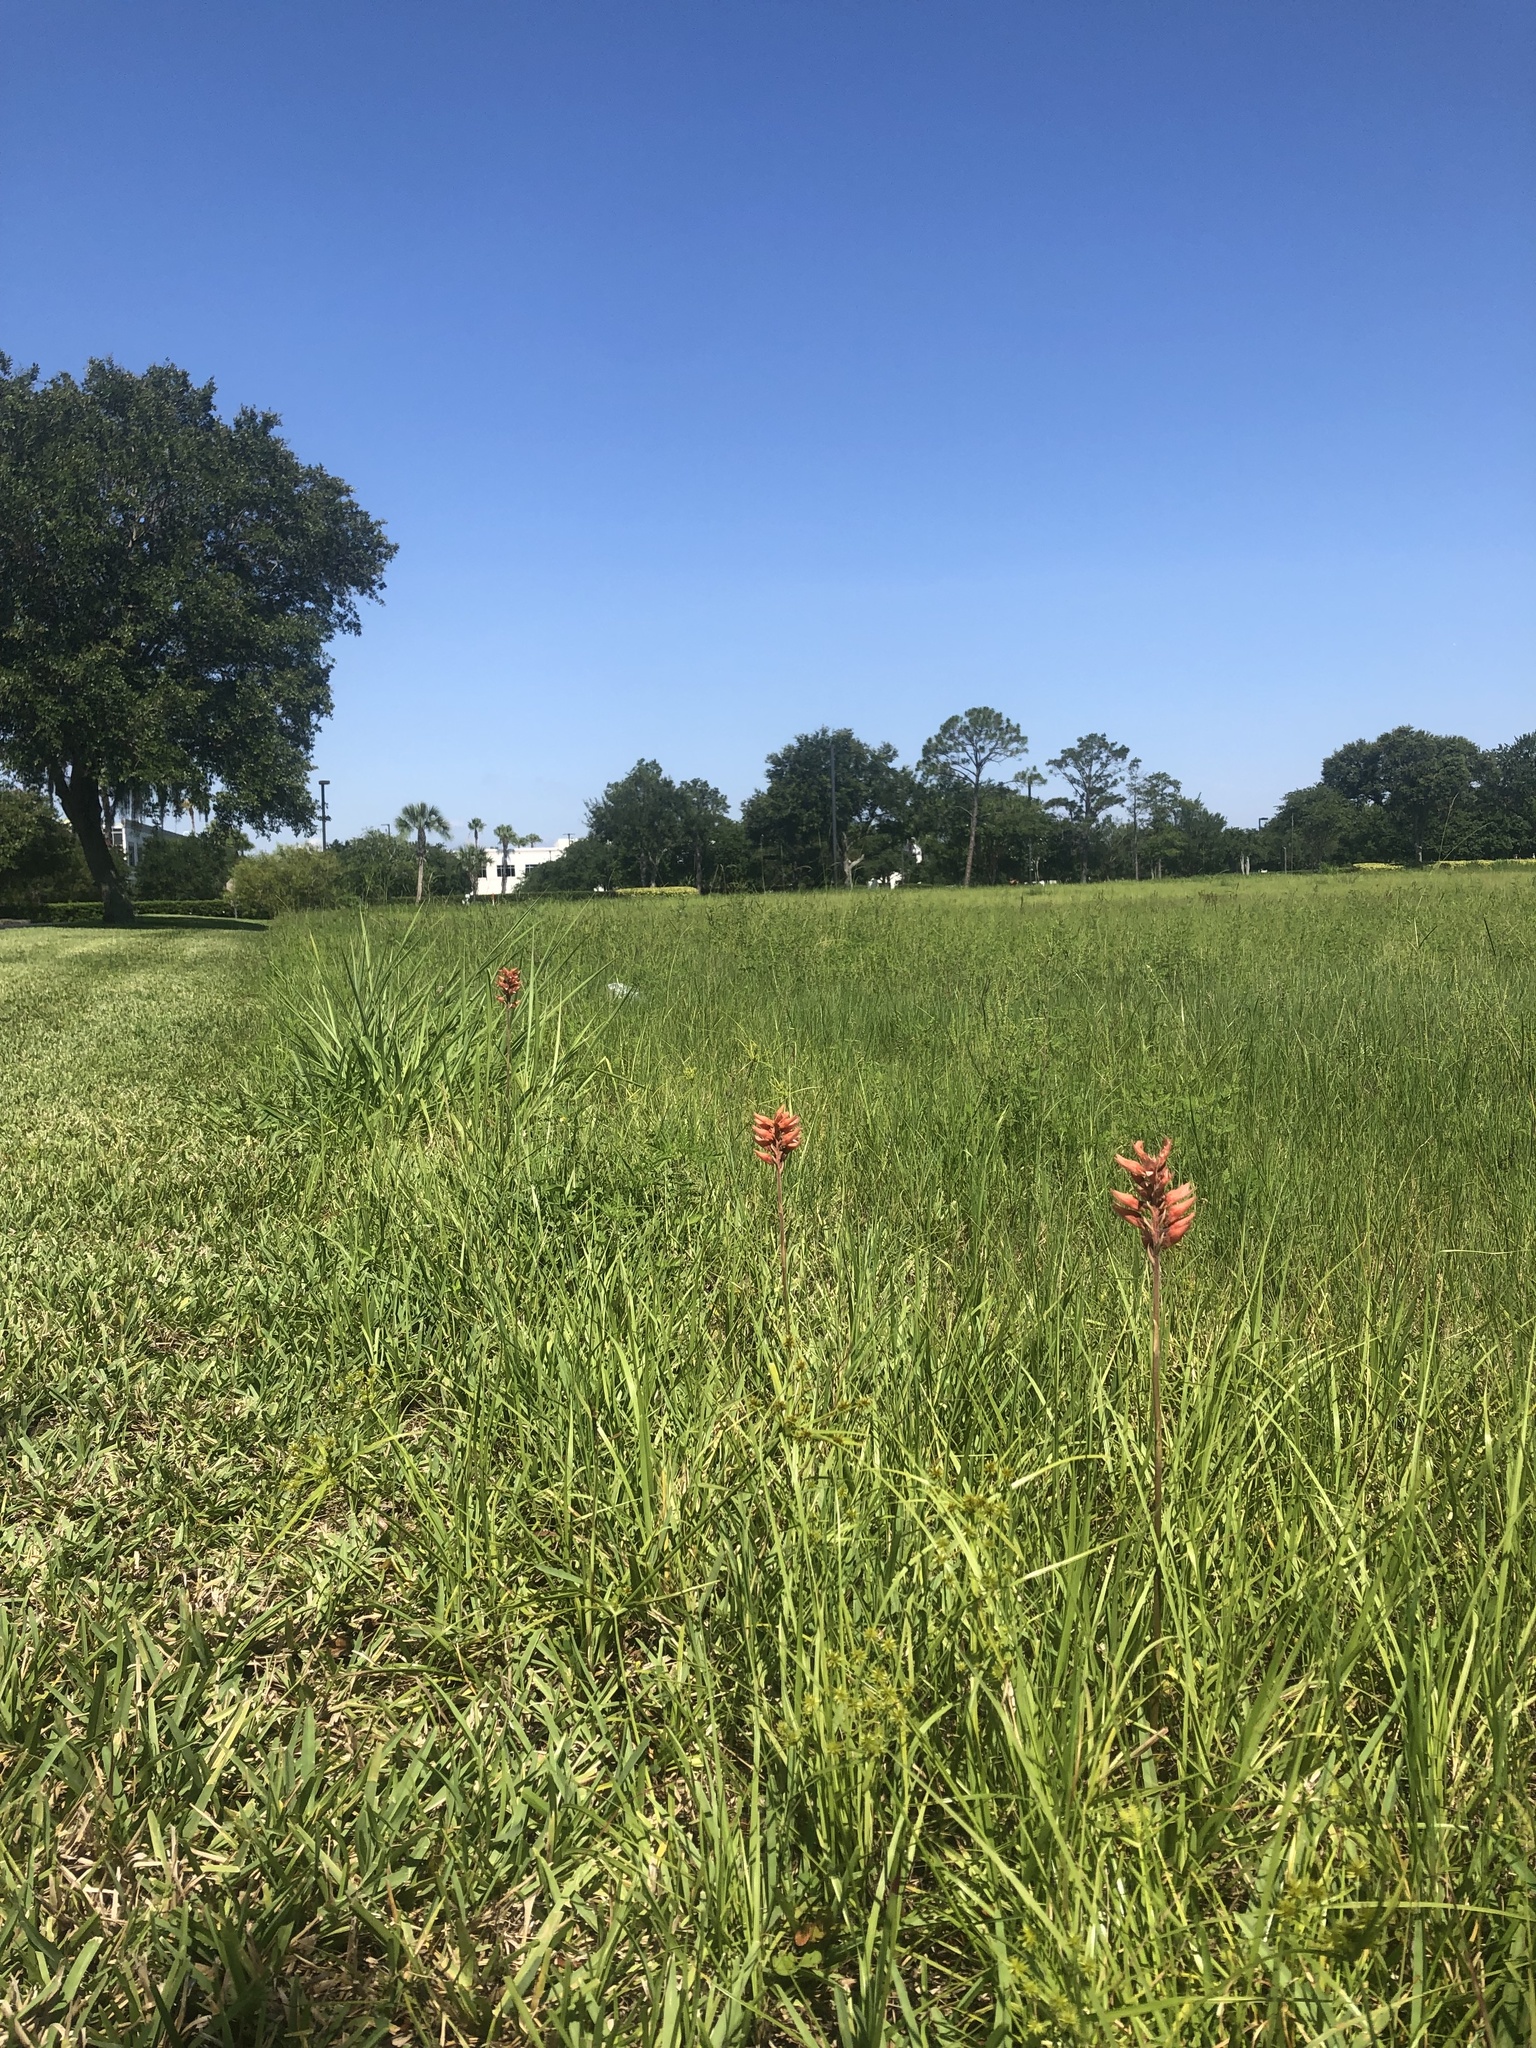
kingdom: Plantae
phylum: Tracheophyta
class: Liliopsida
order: Asparagales
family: Orchidaceae
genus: Sacoila
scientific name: Sacoila lanceolata
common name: Leafless beaked ladiestresses
